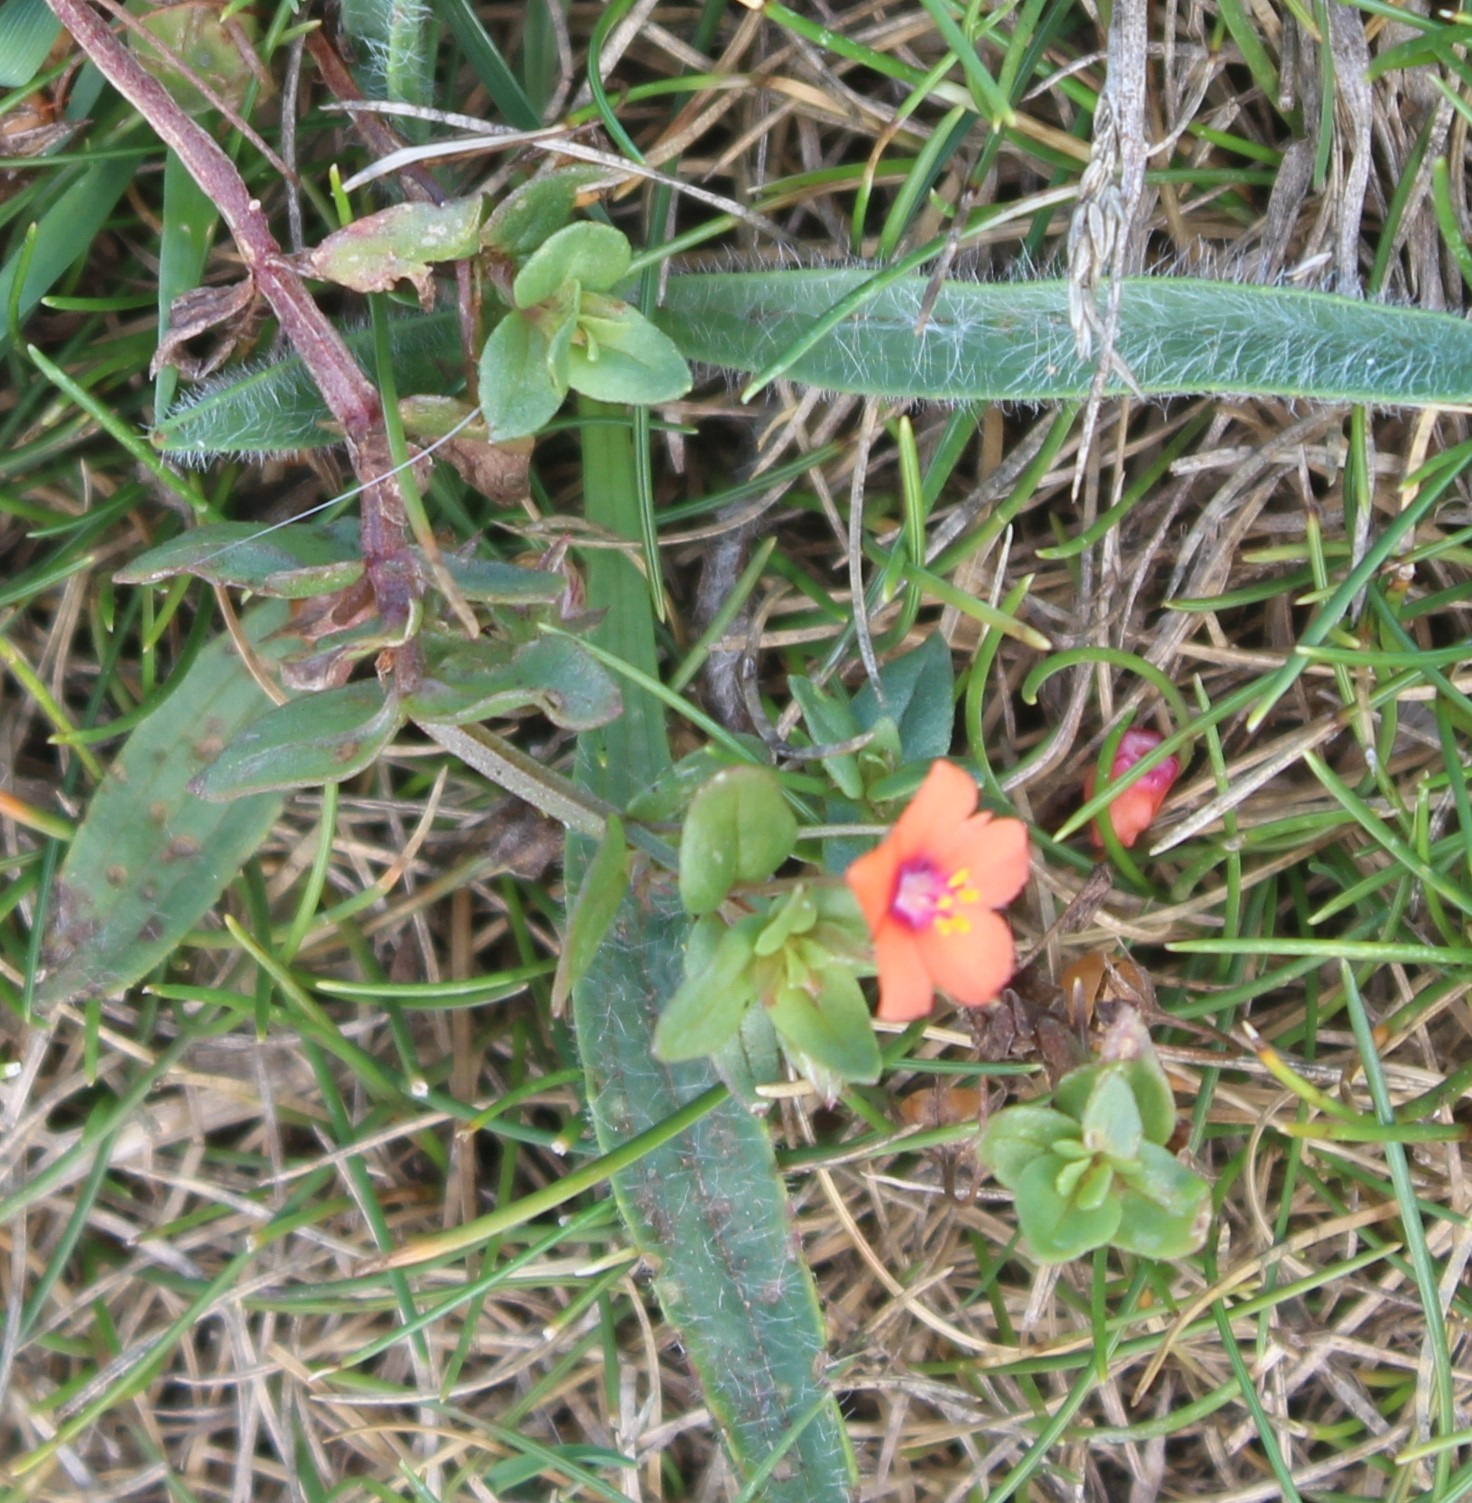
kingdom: Plantae
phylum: Tracheophyta
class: Magnoliopsida
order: Ericales
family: Primulaceae
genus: Lysimachia
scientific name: Lysimachia arvensis
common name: Scarlet pimpernel
